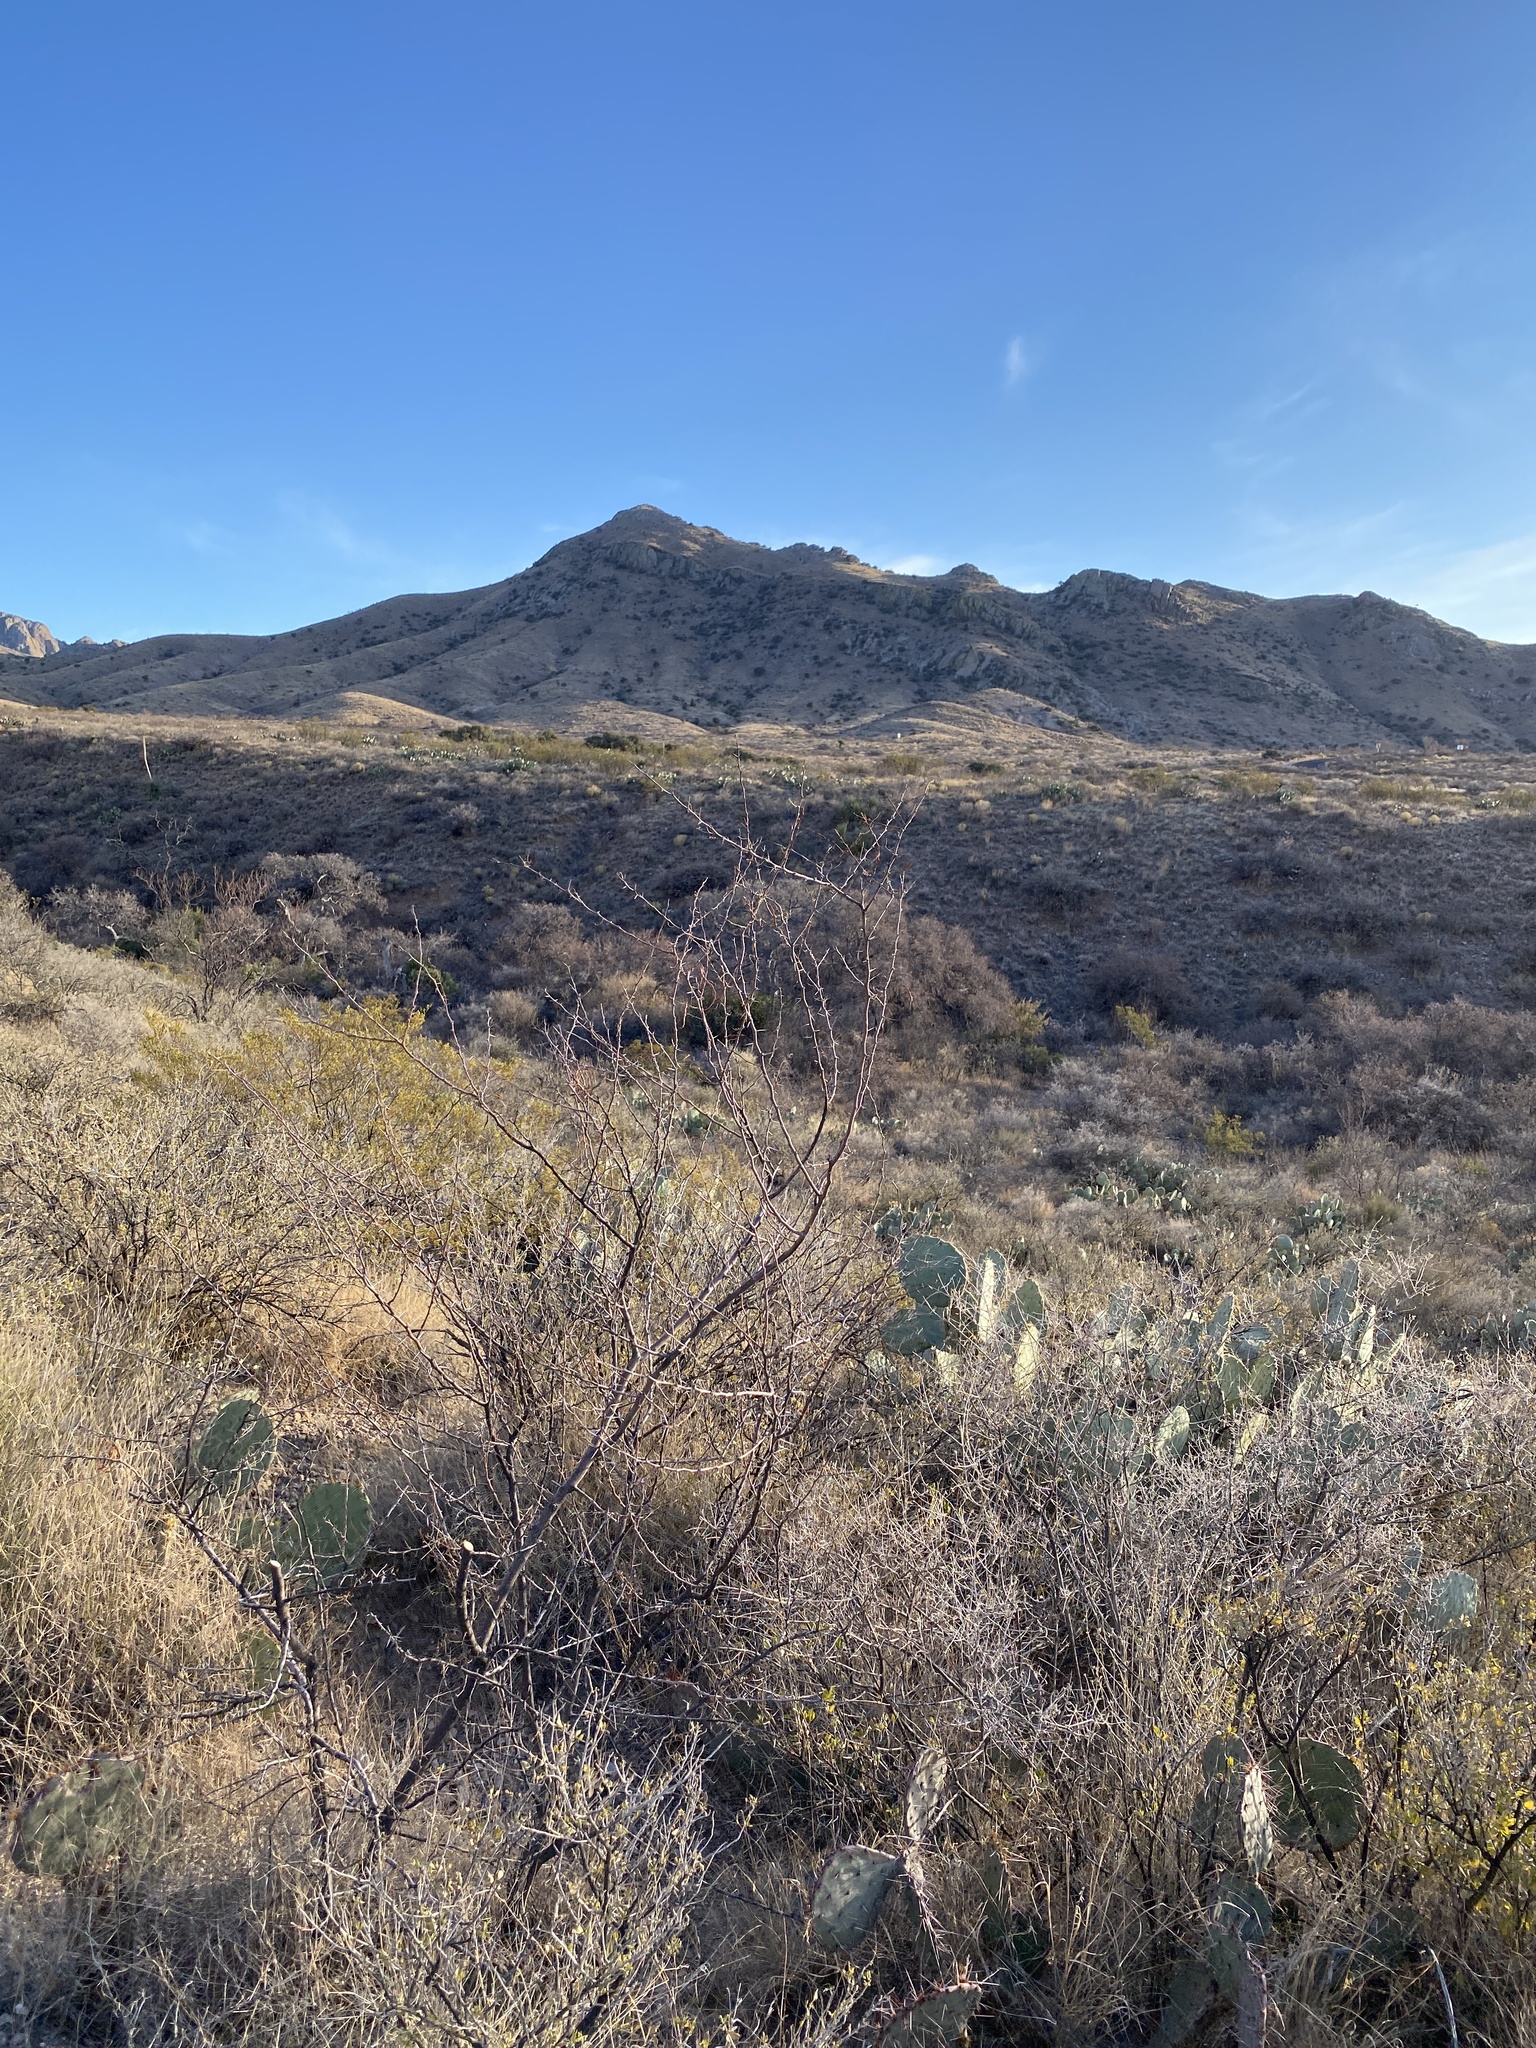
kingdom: Plantae
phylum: Tracheophyta
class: Magnoliopsida
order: Fabales
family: Fabaceae
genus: Vachellia
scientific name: Vachellia constricta
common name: Mescat acacia
